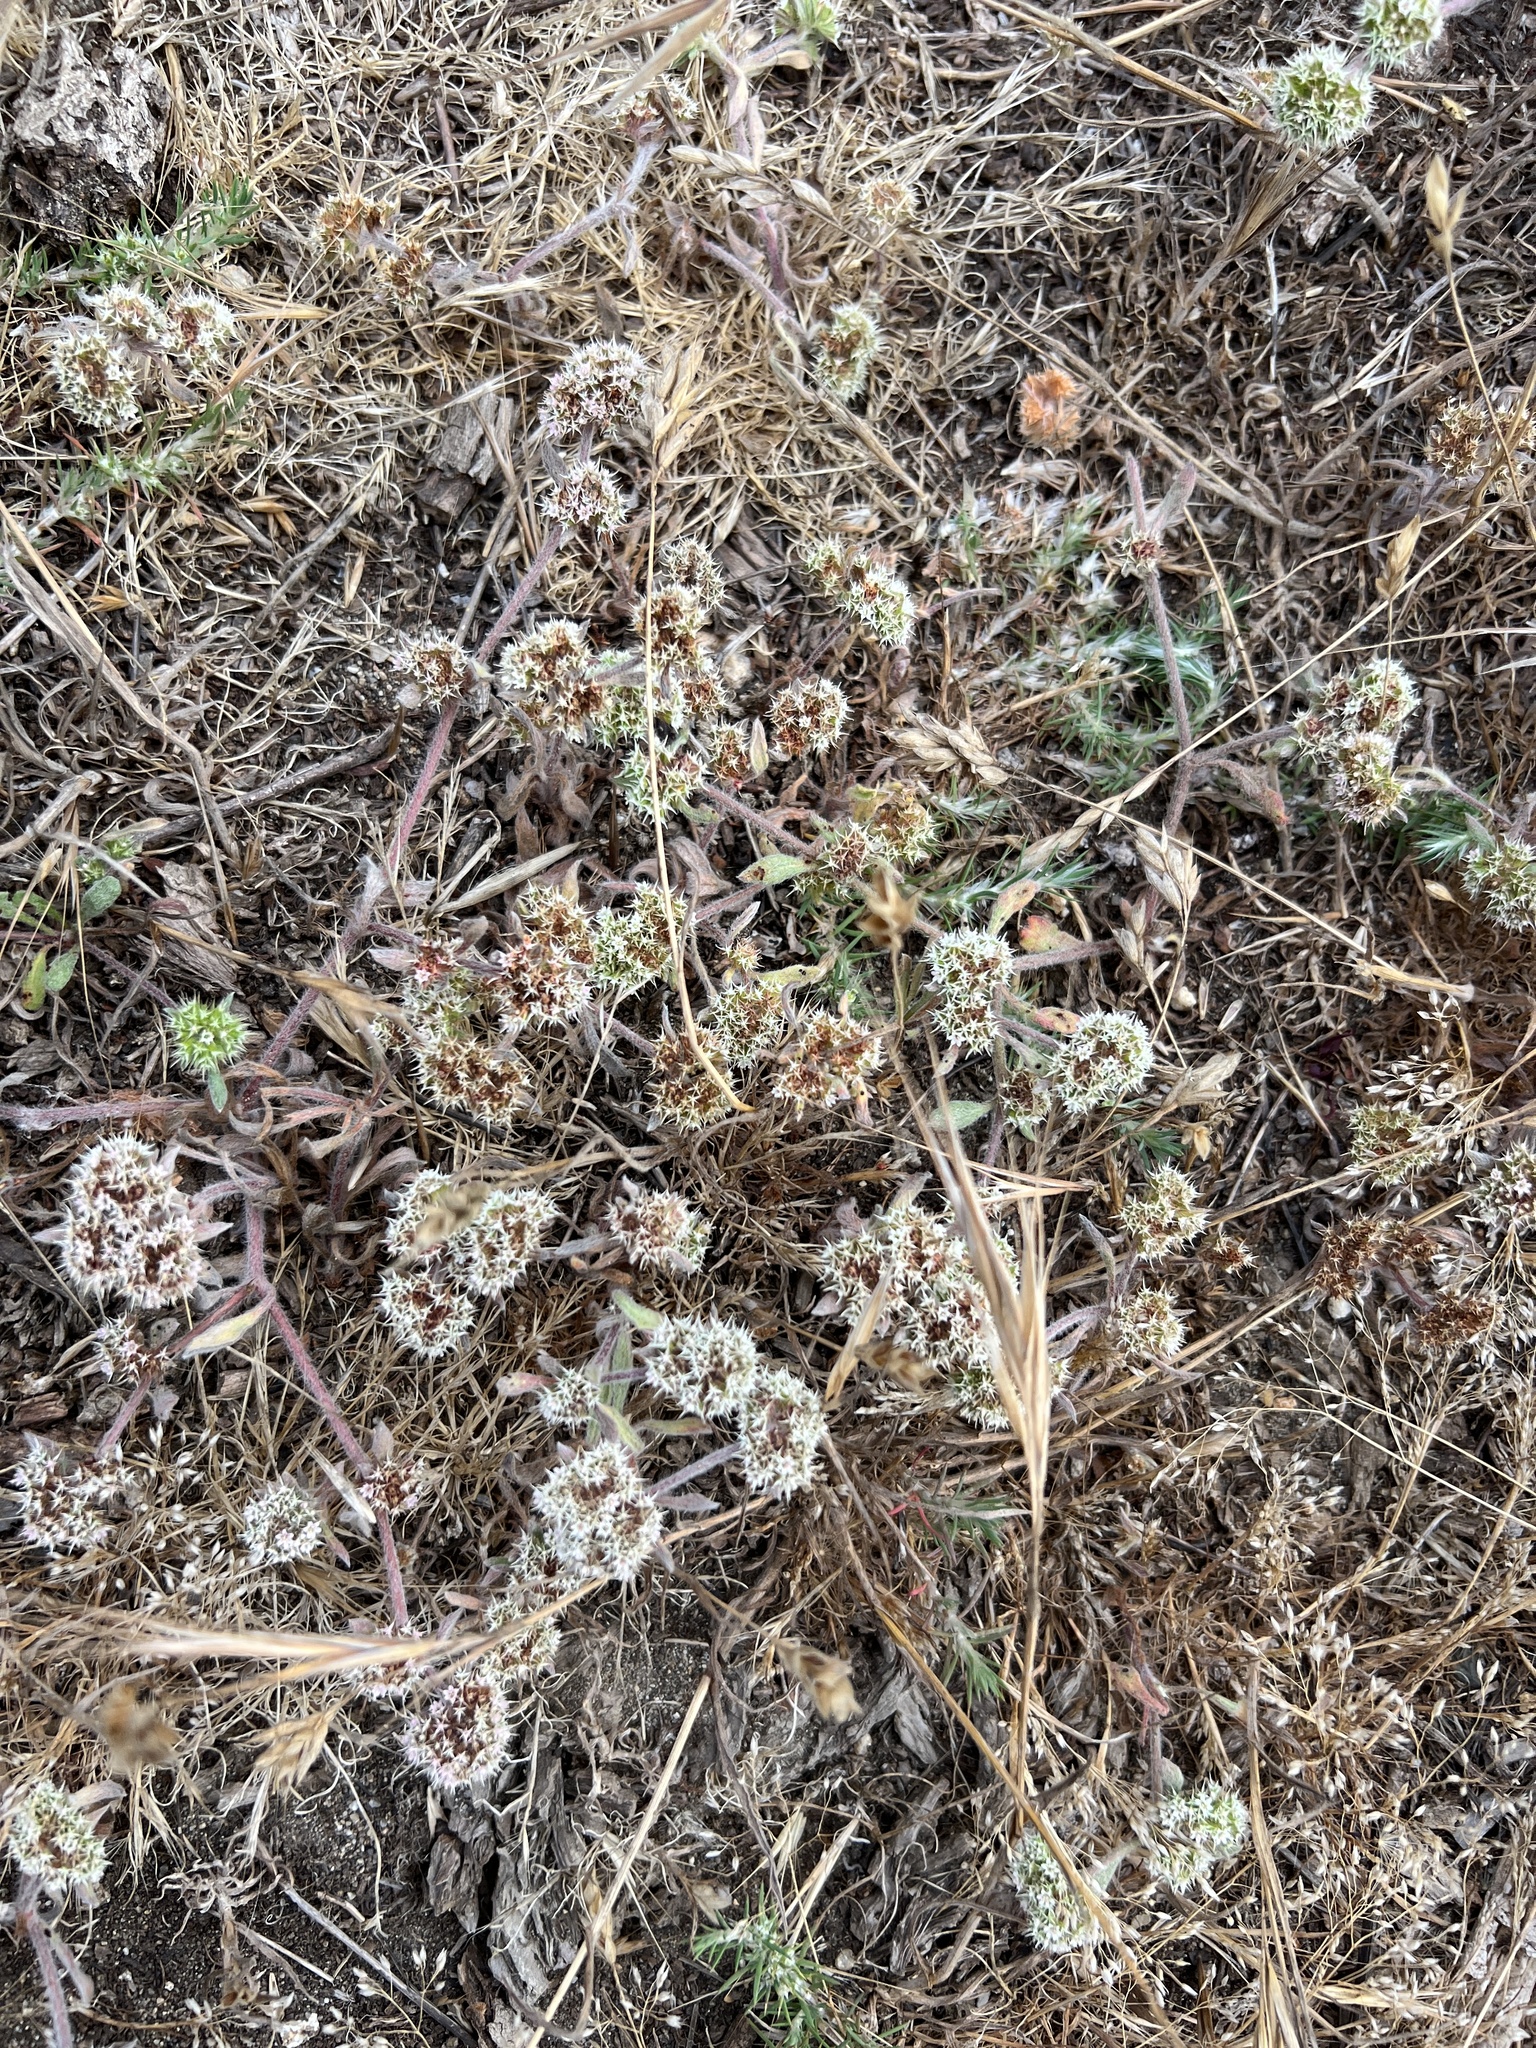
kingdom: Plantae
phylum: Tracheophyta
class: Magnoliopsida
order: Caryophyllales
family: Polygonaceae
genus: Chorizanthe
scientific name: Chorizanthe cuspidata
